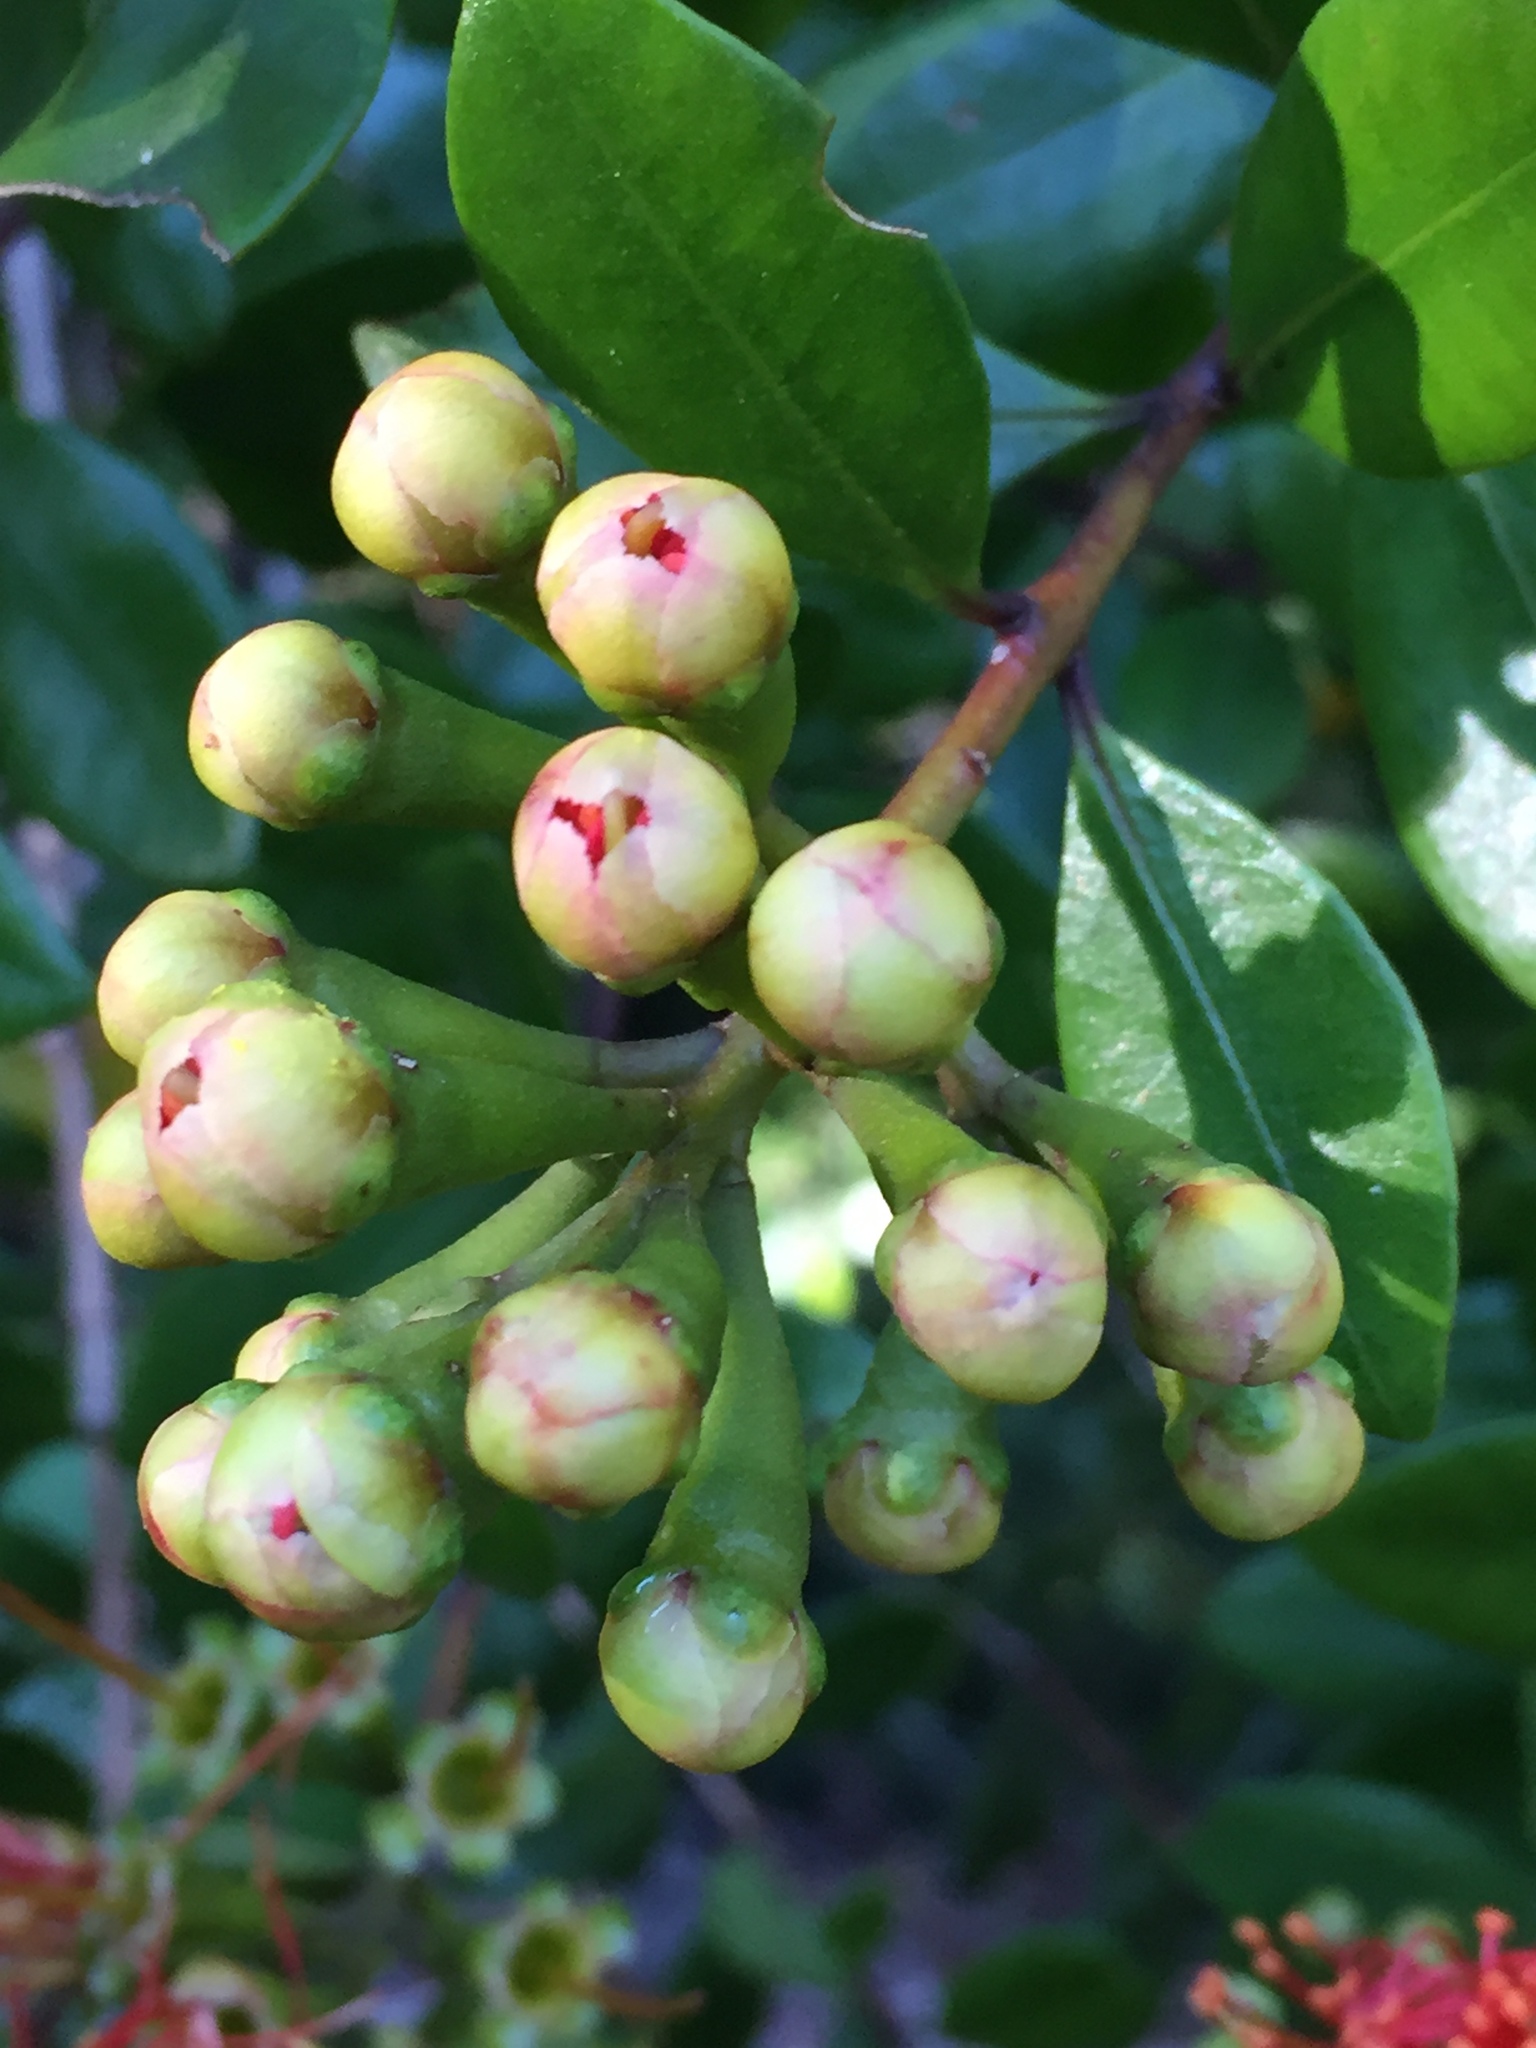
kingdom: Plantae
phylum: Tracheophyta
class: Magnoliopsida
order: Myrtales
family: Myrtaceae
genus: Metrosideros
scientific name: Metrosideros fulgens
